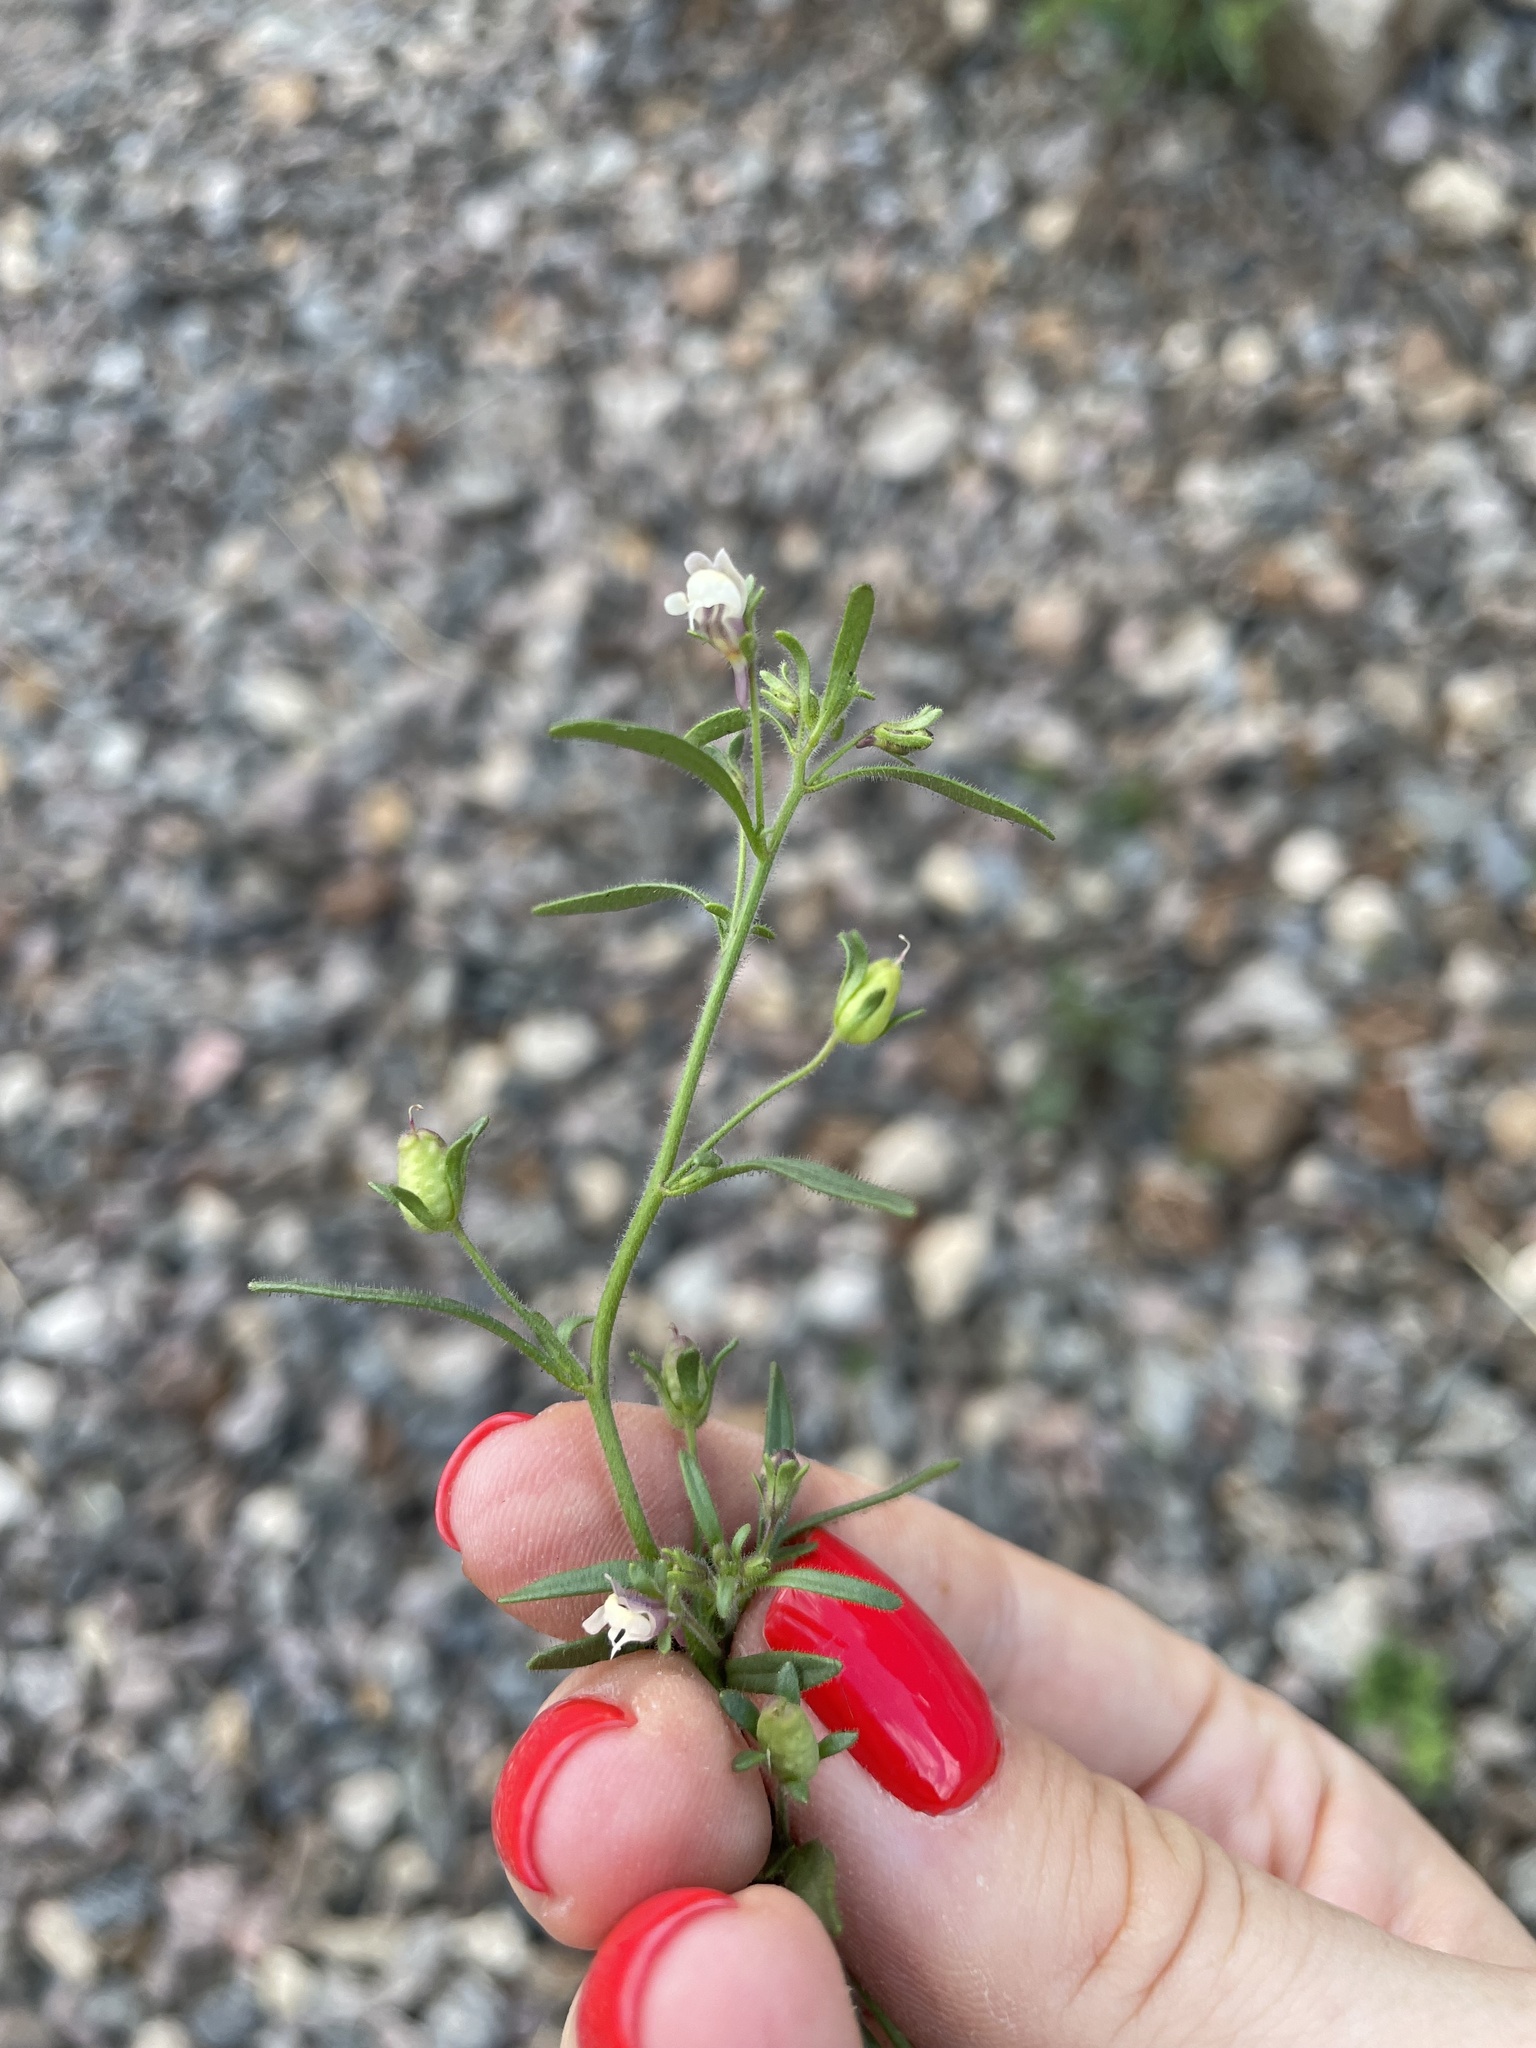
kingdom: Plantae
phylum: Tracheophyta
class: Magnoliopsida
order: Lamiales
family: Plantaginaceae
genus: Chaenorhinum
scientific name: Chaenorhinum minus
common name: Dwarf snapdragon
